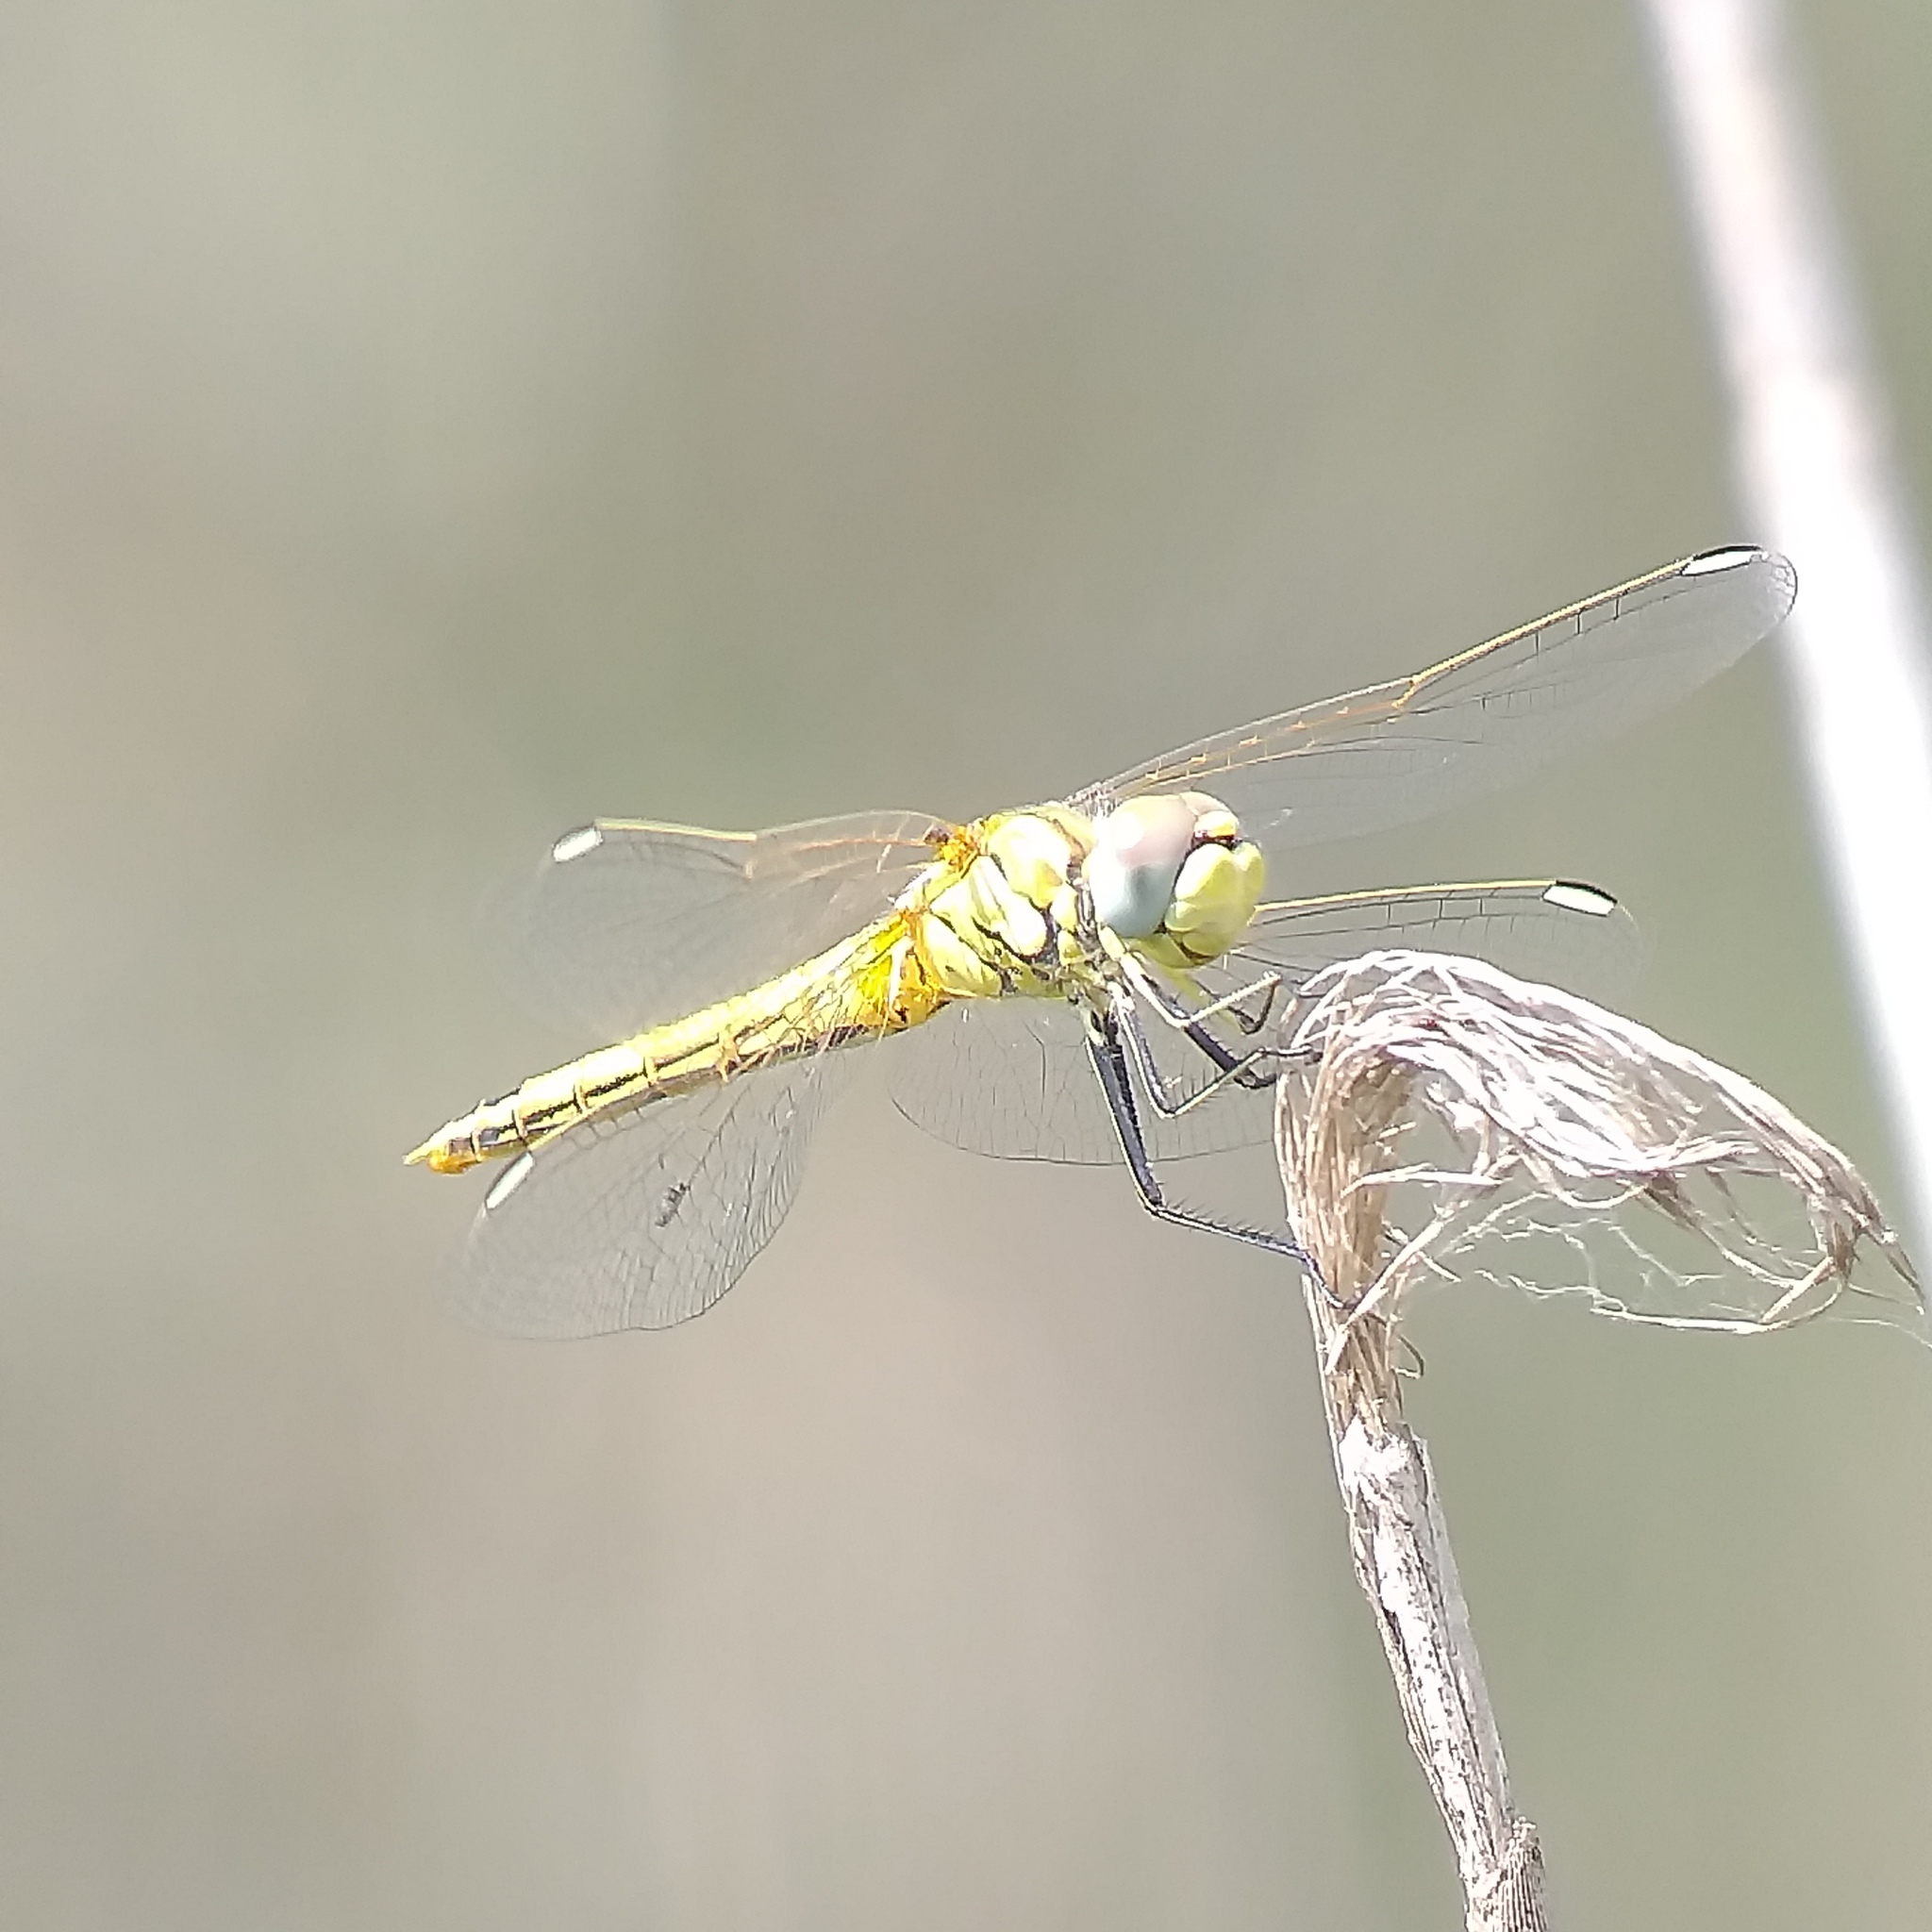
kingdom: Animalia
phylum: Arthropoda
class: Insecta
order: Odonata
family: Libellulidae
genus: Sympetrum
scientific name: Sympetrum fonscolombii
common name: Red-veined darter
